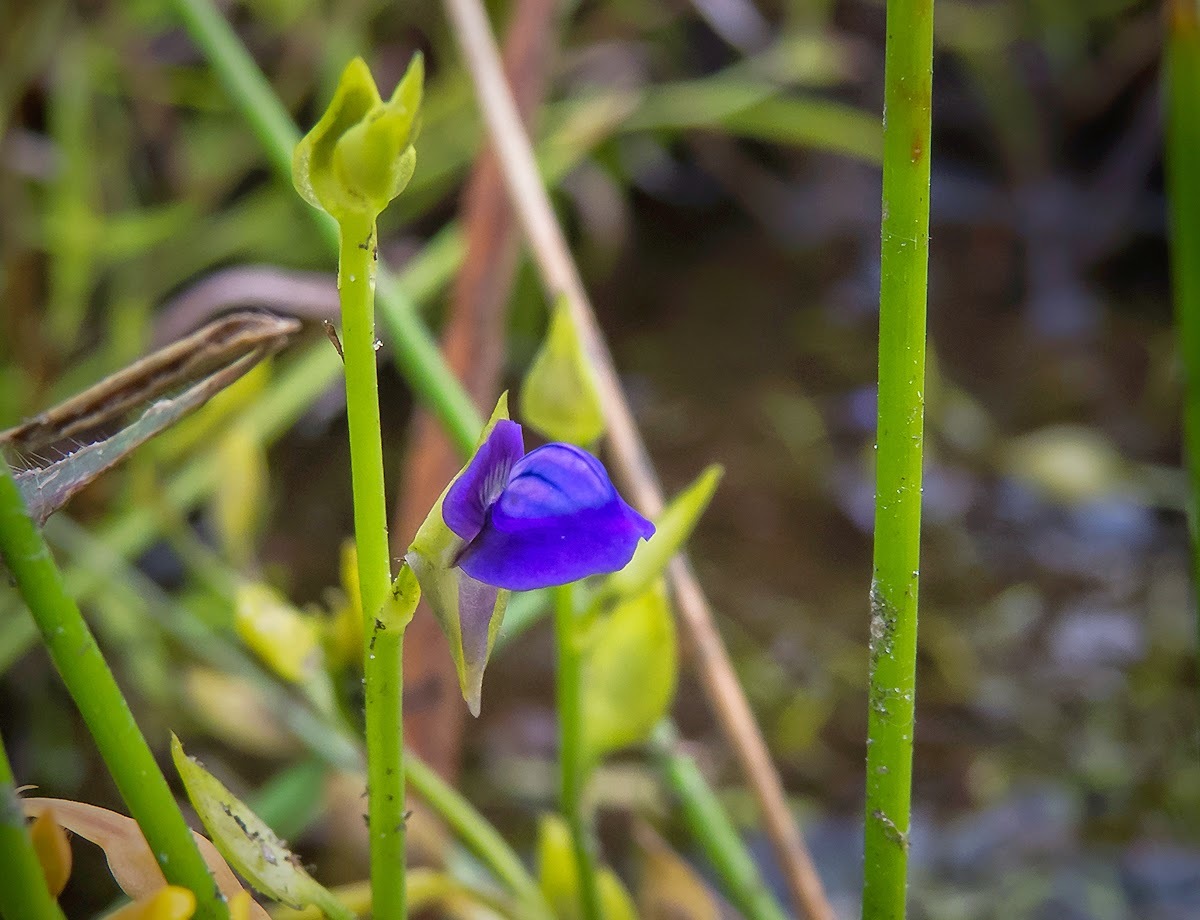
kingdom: Plantae
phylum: Tracheophyta
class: Magnoliopsida
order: Lamiales
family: Lentibulariaceae
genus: Utricularia
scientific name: Utricularia polygaloides
